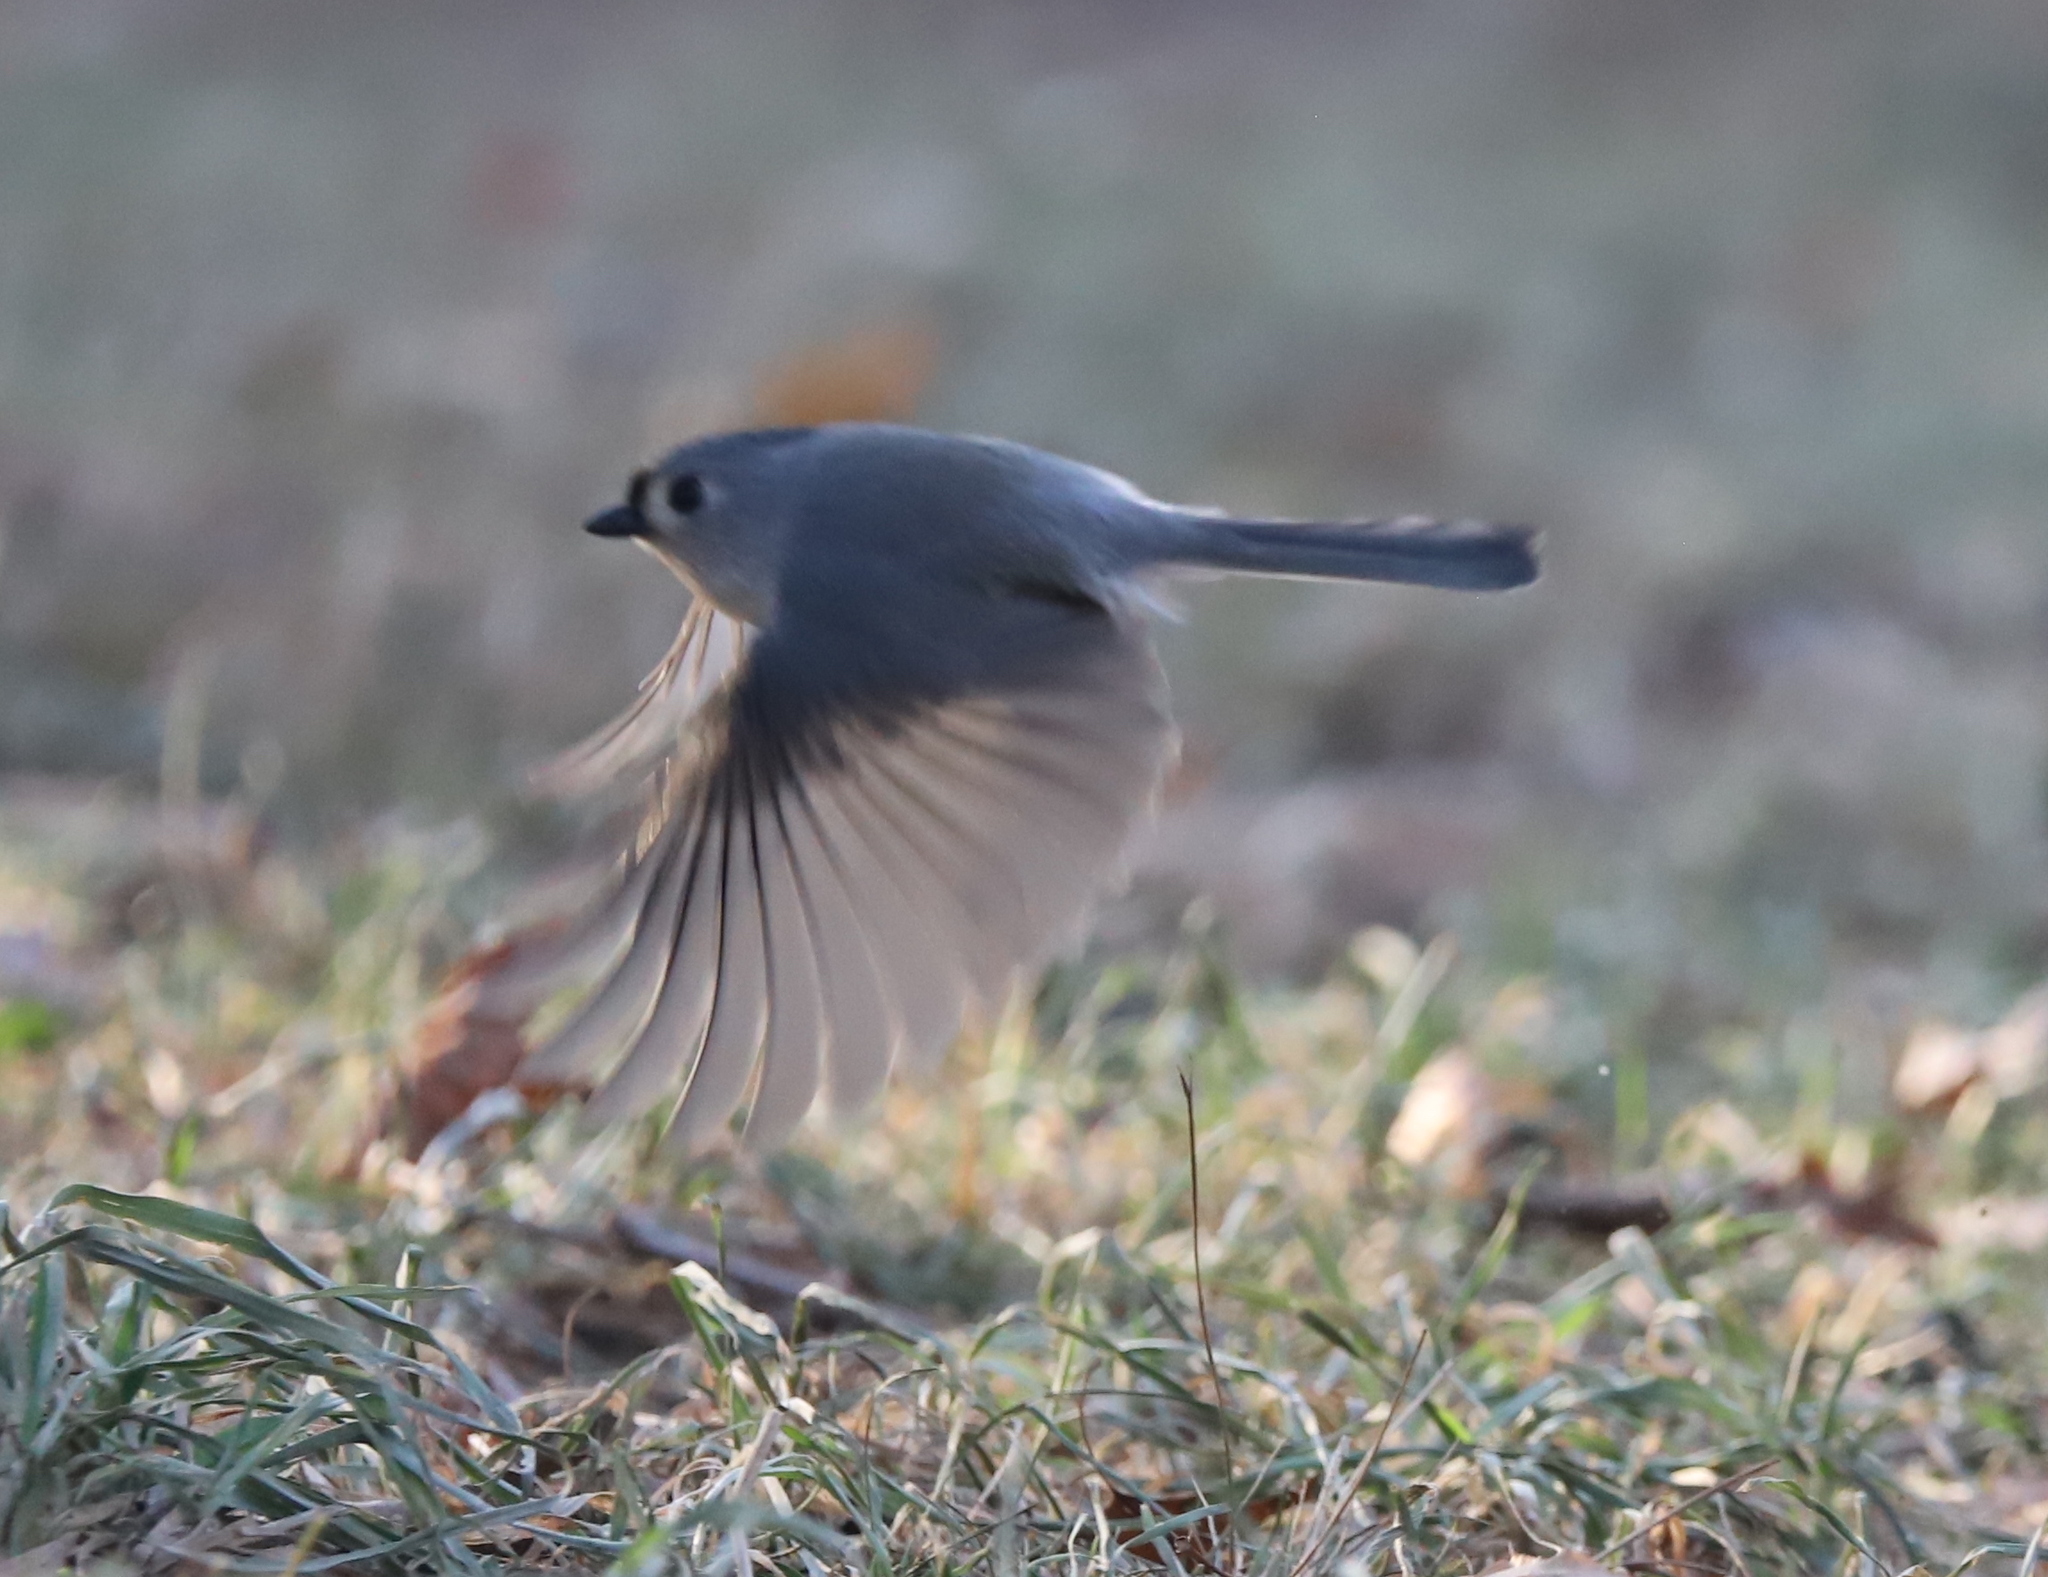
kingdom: Animalia
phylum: Chordata
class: Aves
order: Passeriformes
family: Paridae
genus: Baeolophus
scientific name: Baeolophus bicolor
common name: Tufted titmouse
